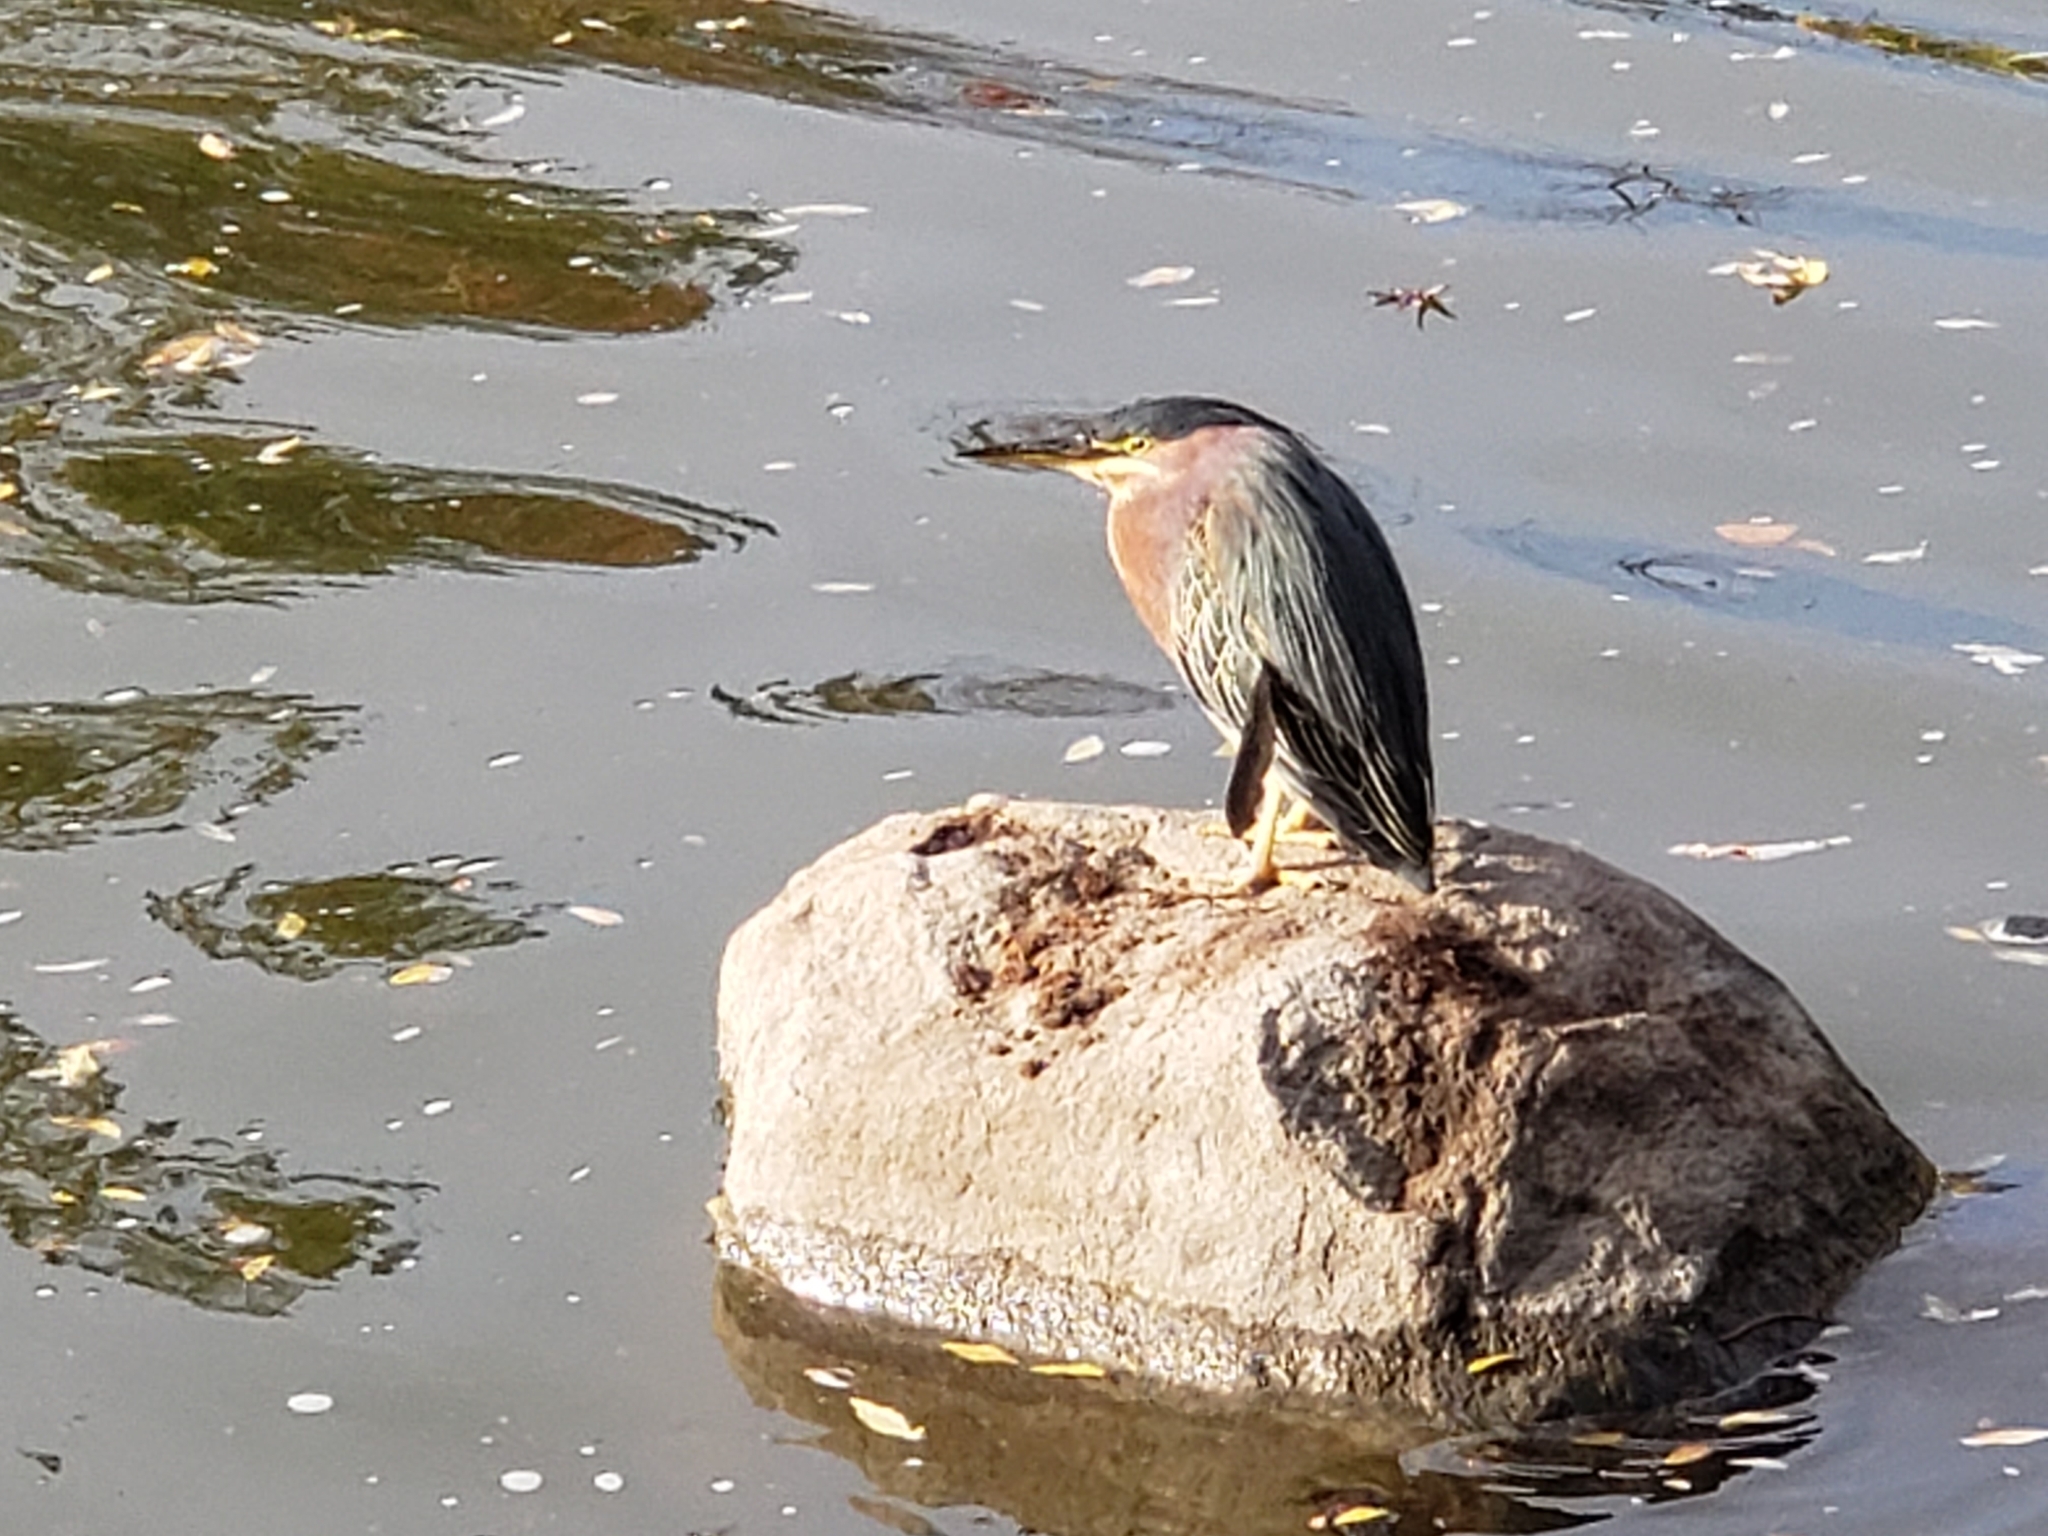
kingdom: Animalia
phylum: Chordata
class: Aves
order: Pelecaniformes
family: Ardeidae
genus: Butorides
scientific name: Butorides virescens
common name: Green heron
